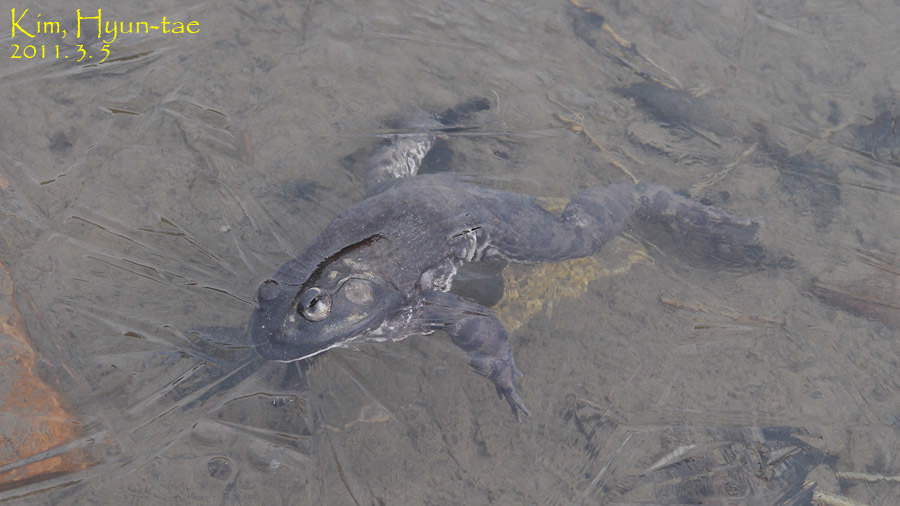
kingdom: Animalia
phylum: Chordata
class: Amphibia
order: Anura
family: Ranidae
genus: Lithobates
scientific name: Lithobates catesbeianus
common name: American bullfrog
